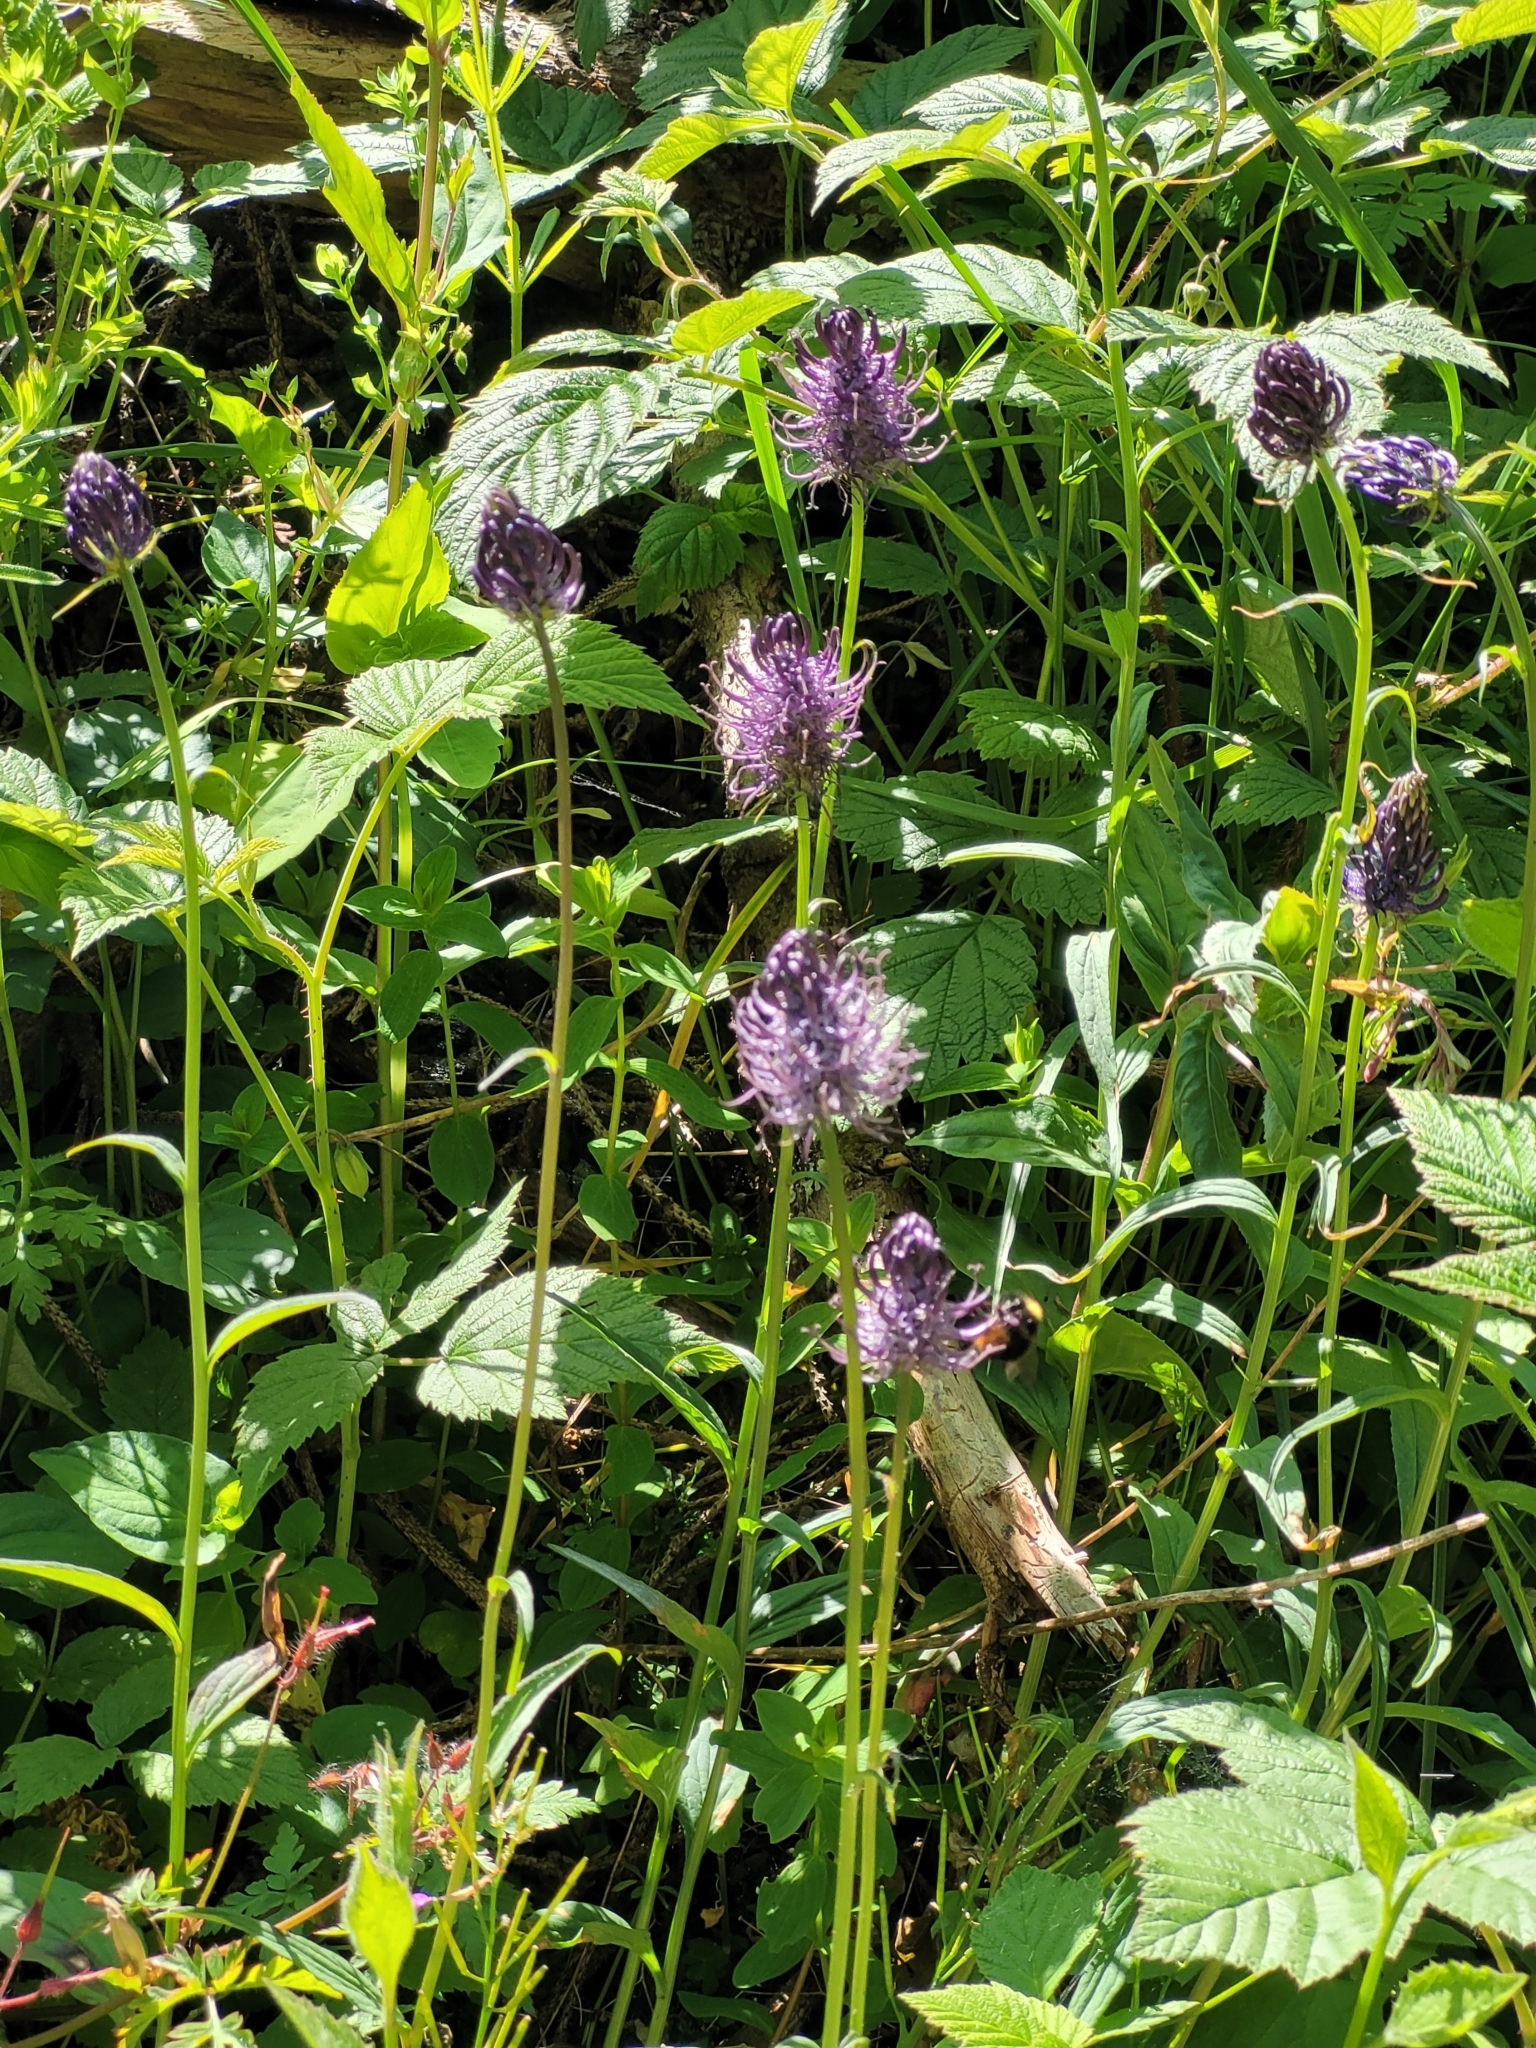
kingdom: Plantae
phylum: Tracheophyta
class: Magnoliopsida
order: Asterales
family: Campanulaceae
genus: Phyteuma
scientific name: Phyteuma nigrum
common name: Black rampion
